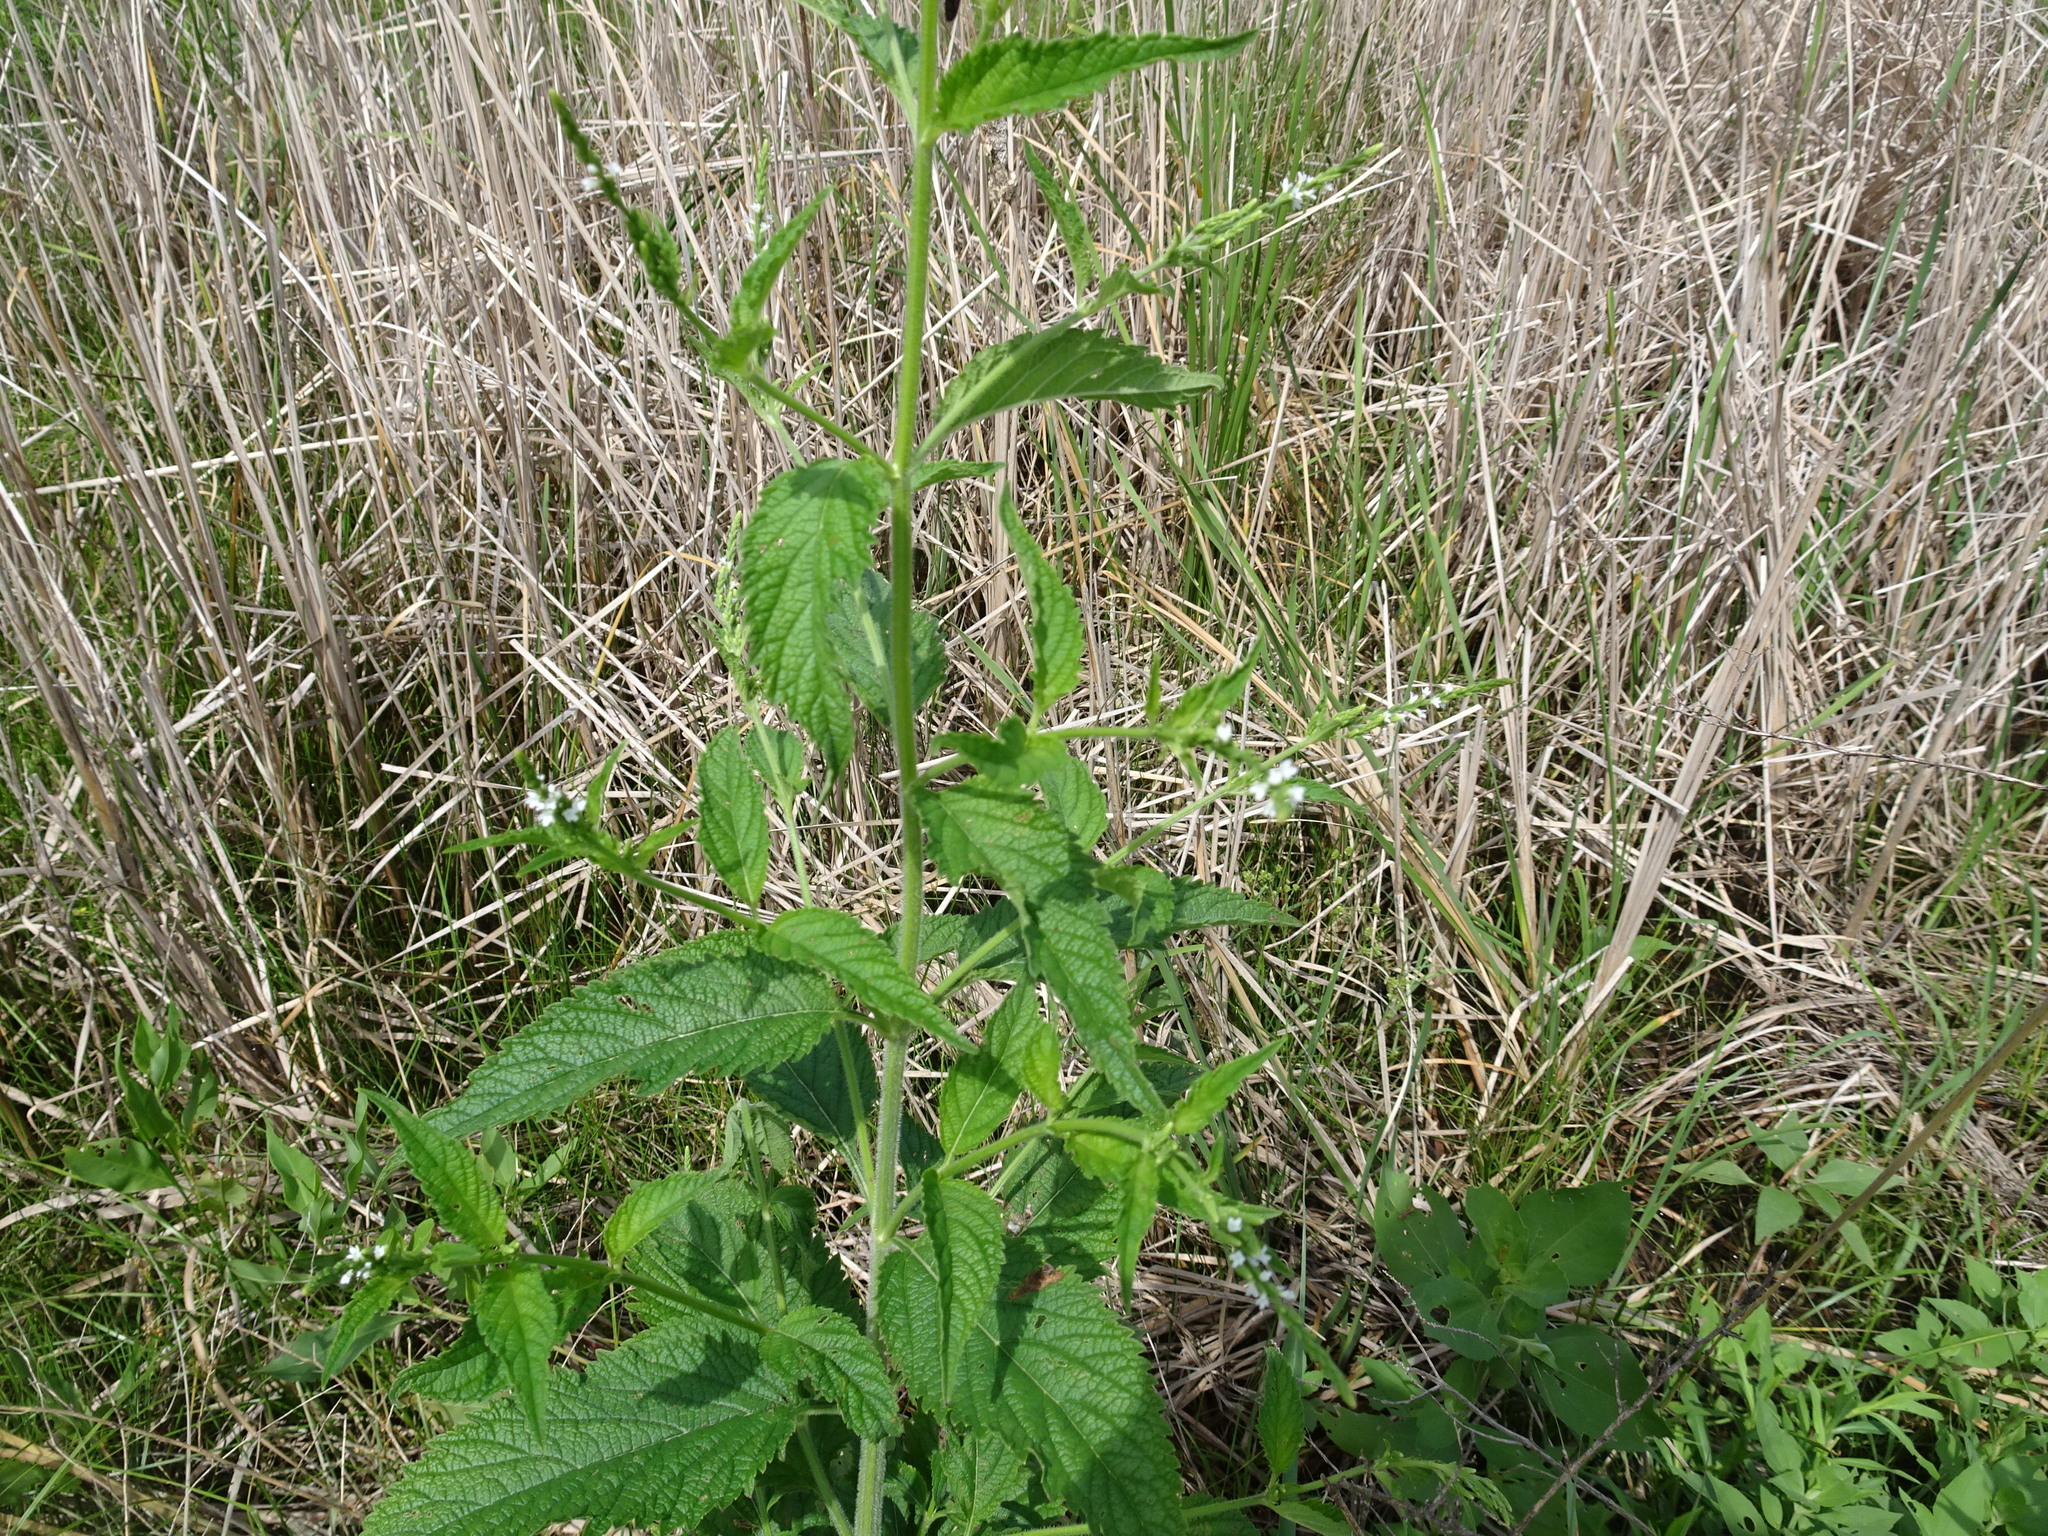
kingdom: Plantae
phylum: Tracheophyta
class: Magnoliopsida
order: Lamiales
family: Verbenaceae
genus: Verbena
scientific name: Verbena urticifolia
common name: Nettle-leaved vervain
